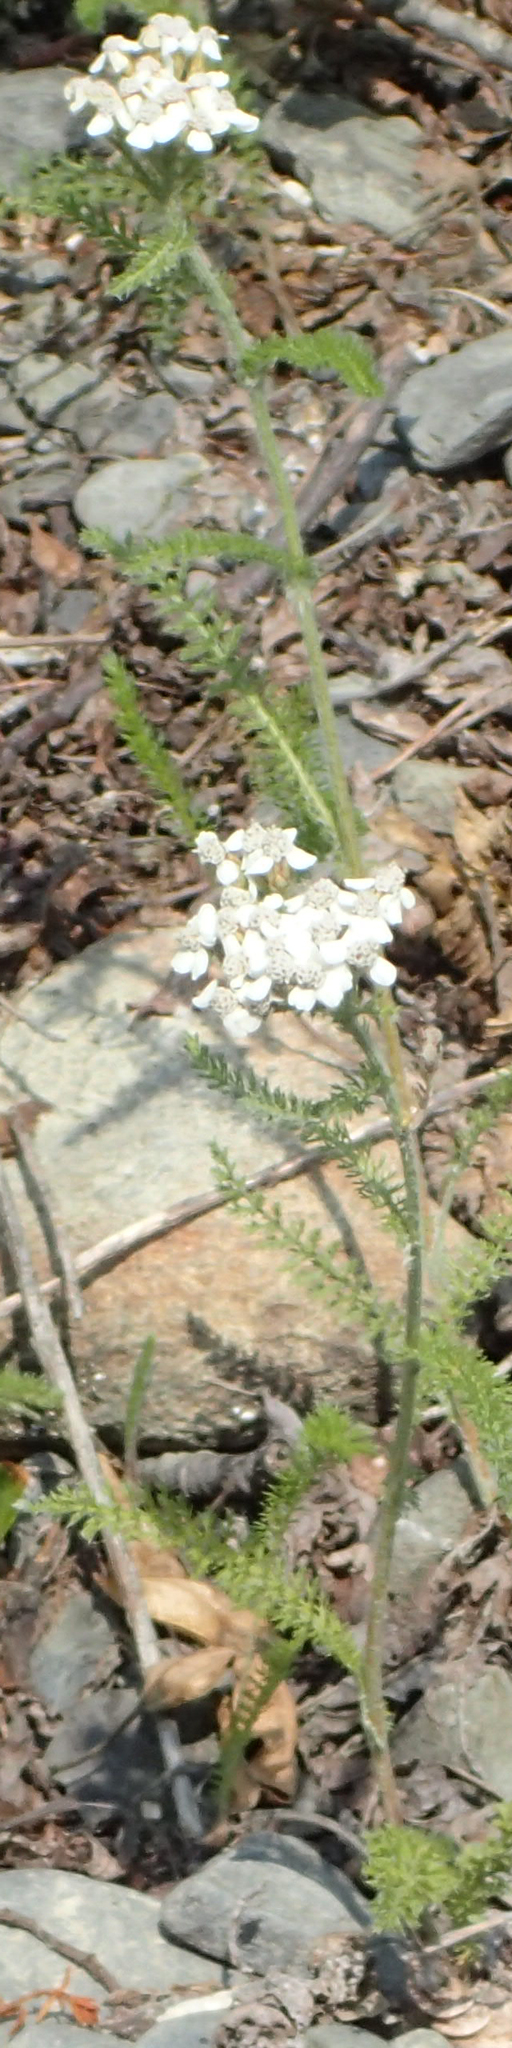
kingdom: Plantae
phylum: Tracheophyta
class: Magnoliopsida
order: Asterales
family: Asteraceae
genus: Achillea
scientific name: Achillea millefolium
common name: Yarrow
